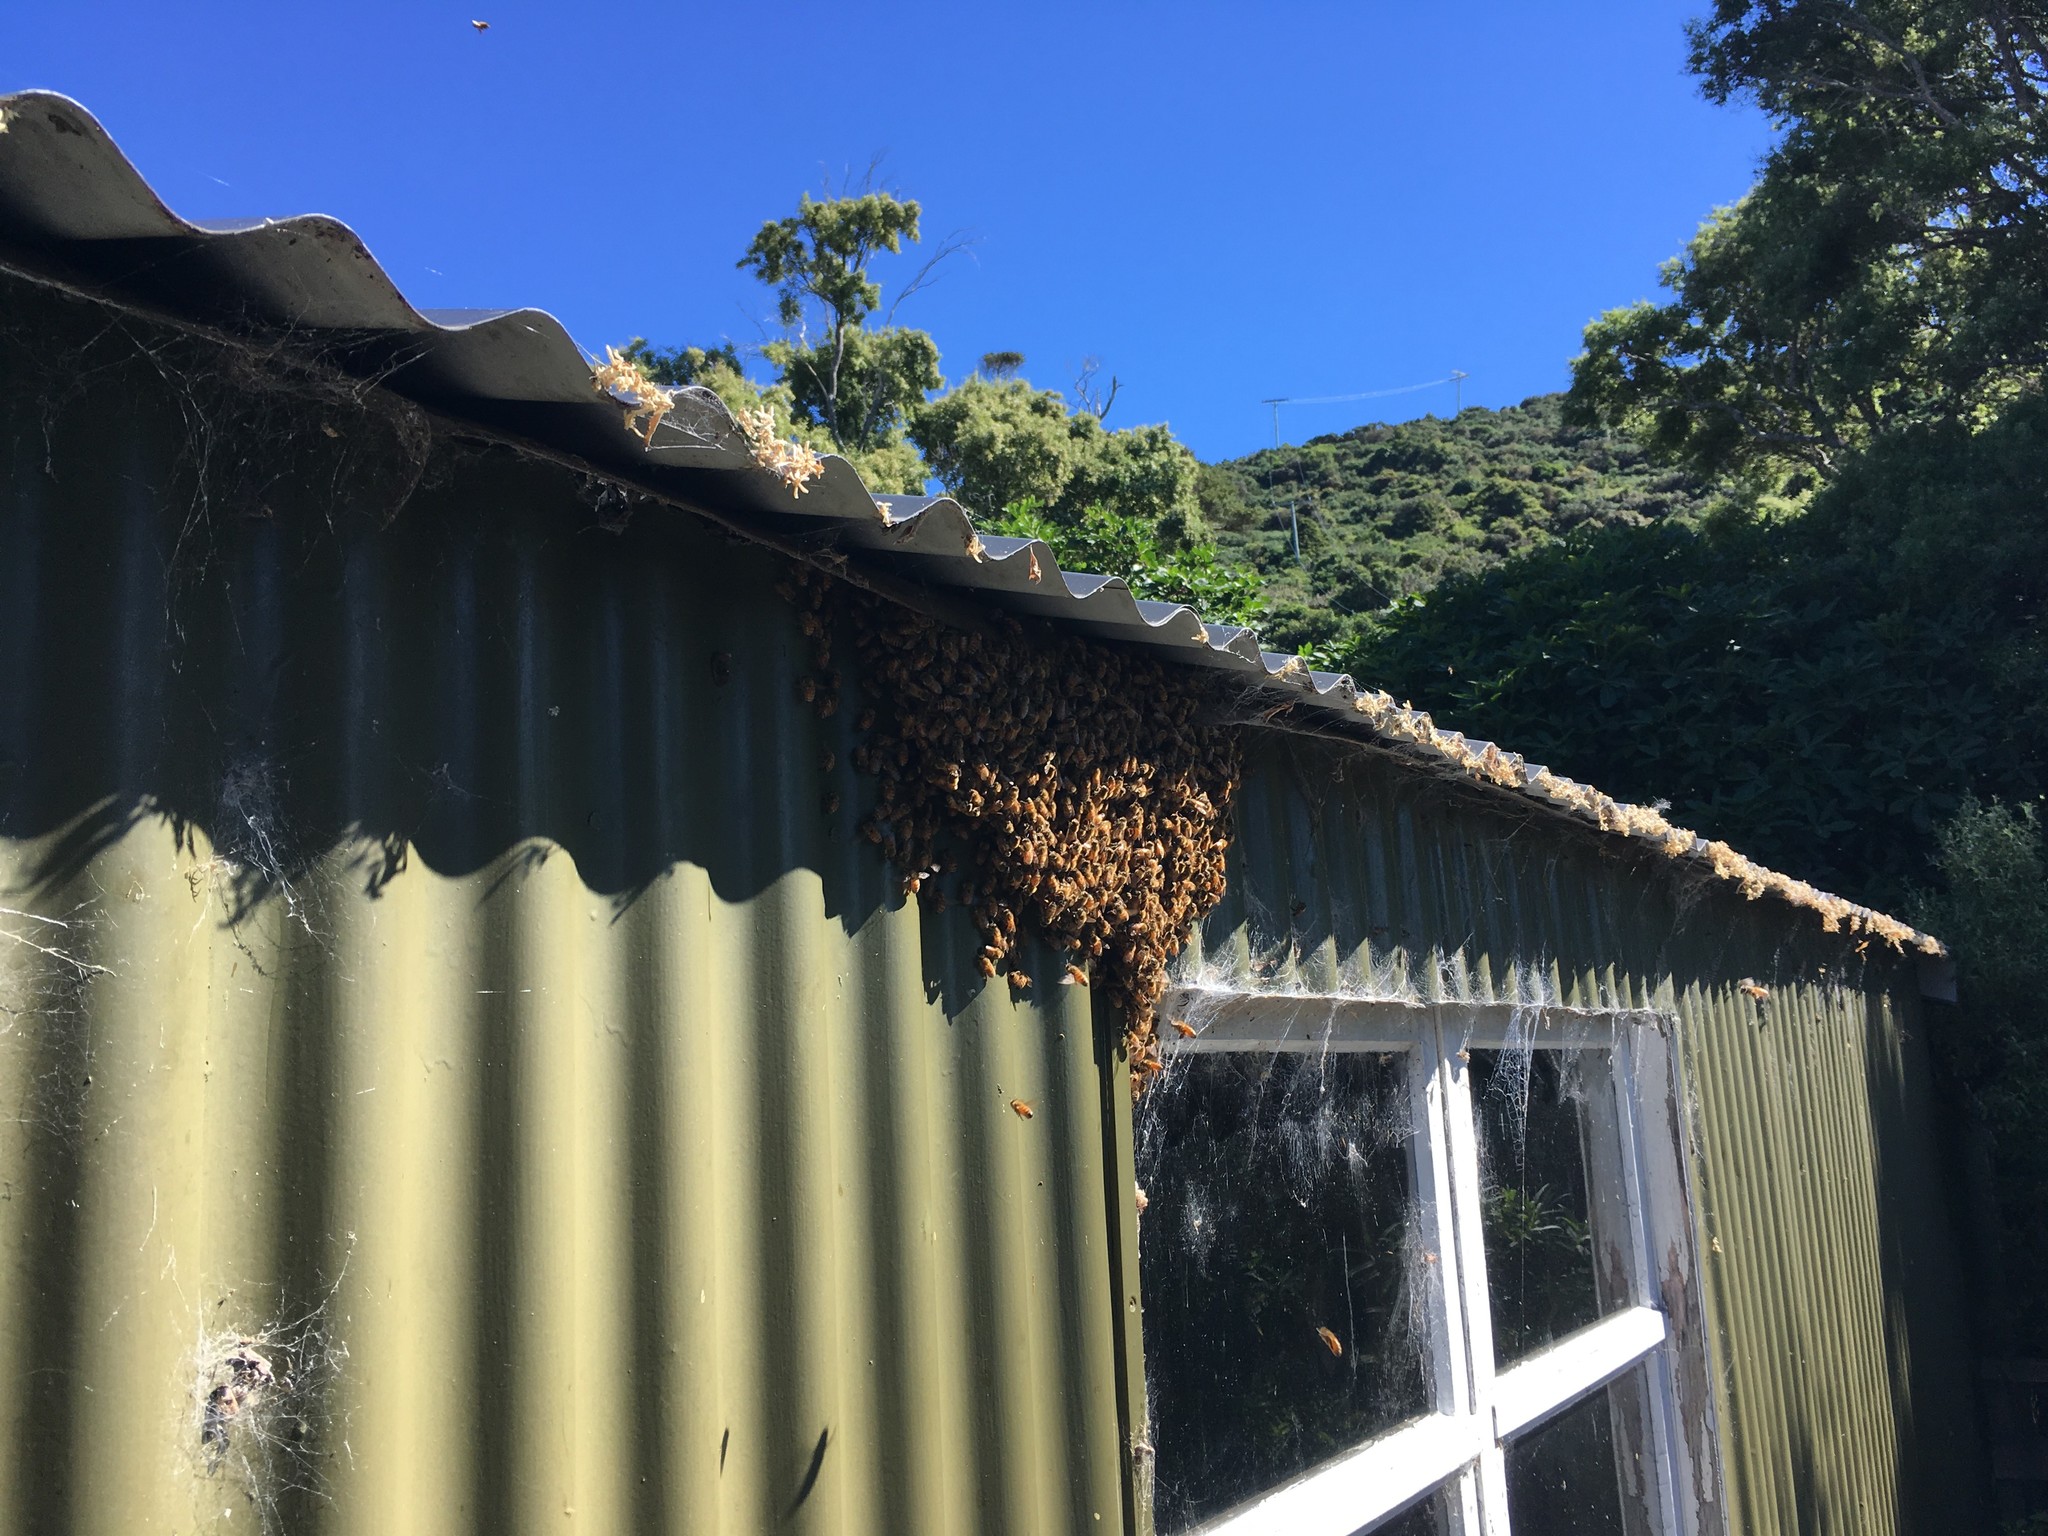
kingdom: Animalia
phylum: Arthropoda
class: Insecta
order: Hymenoptera
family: Apidae
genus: Apis
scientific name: Apis mellifera
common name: Honey bee
